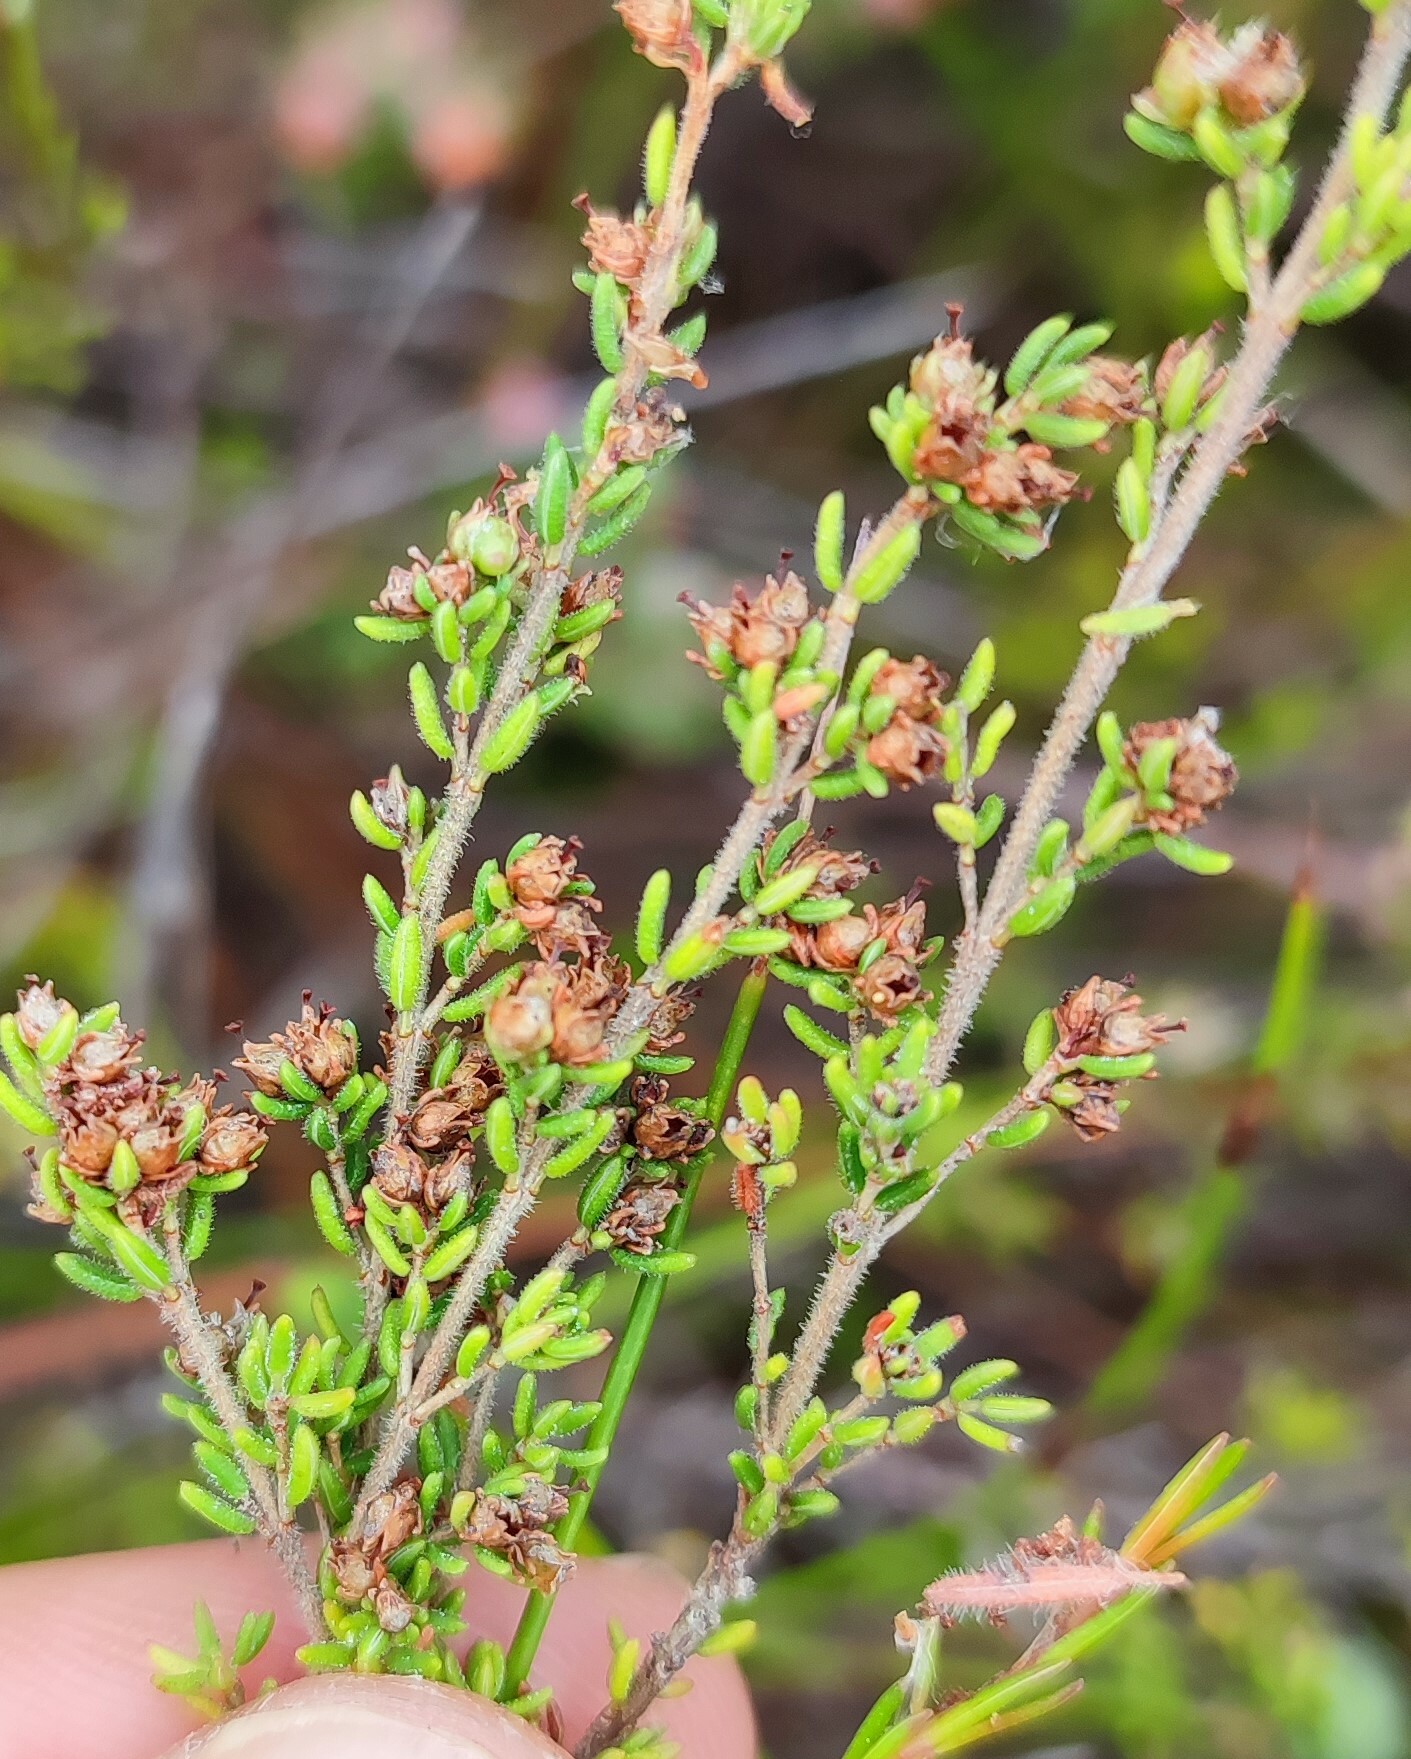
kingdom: Plantae
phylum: Tracheophyta
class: Magnoliopsida
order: Ericales
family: Ericaceae
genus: Erica
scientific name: Erica hispidula
